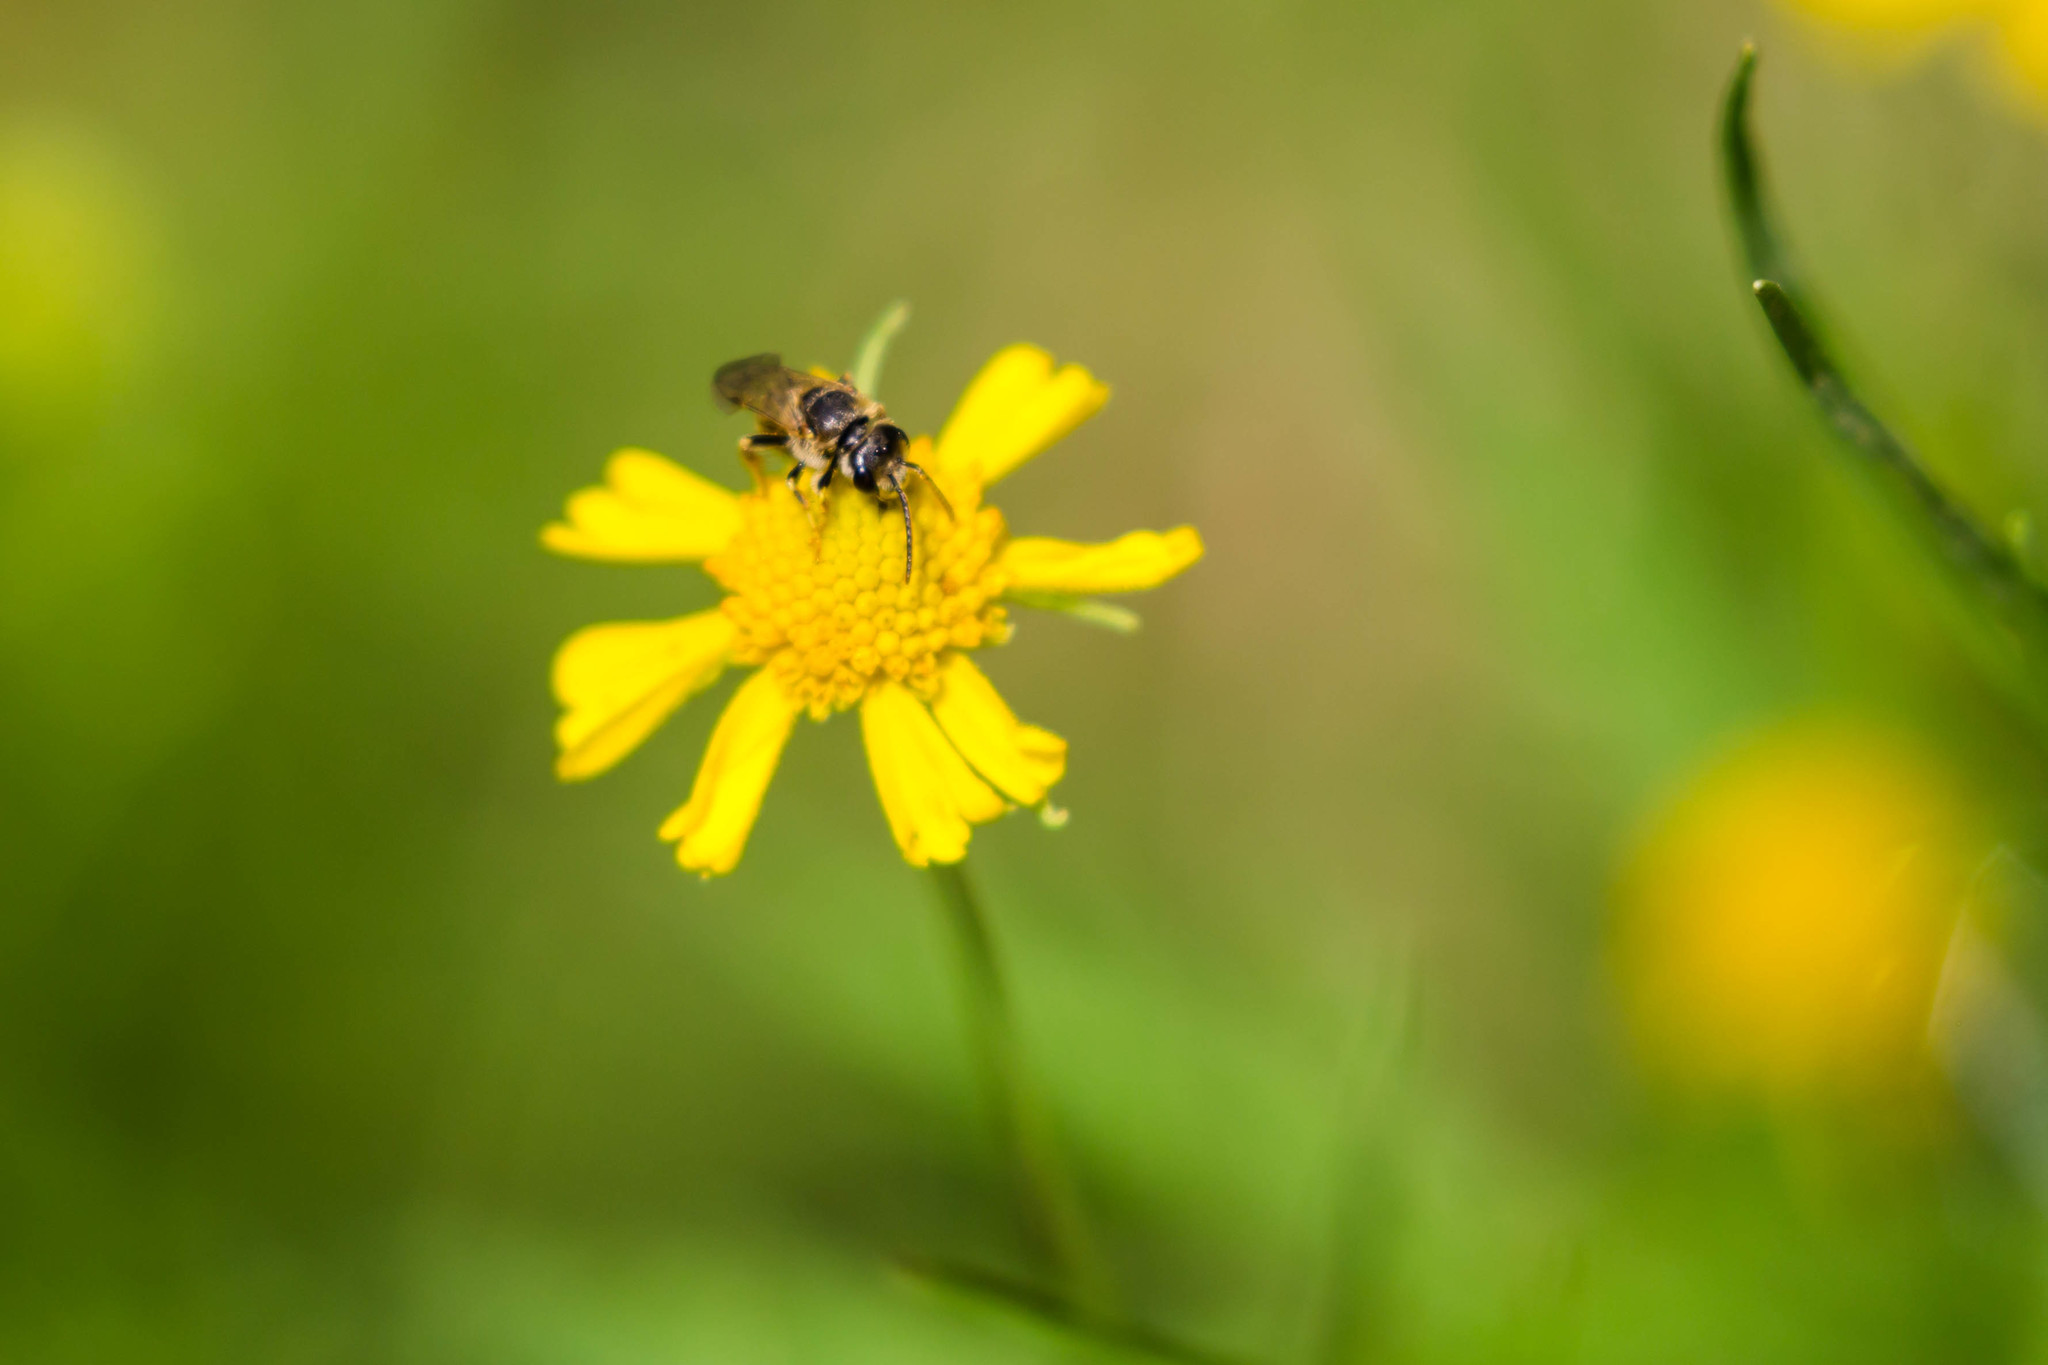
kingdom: Animalia
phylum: Arthropoda
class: Insecta
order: Hymenoptera
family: Halictidae
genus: Halictus
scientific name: Halictus ligatus
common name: Ligated furrow bee
